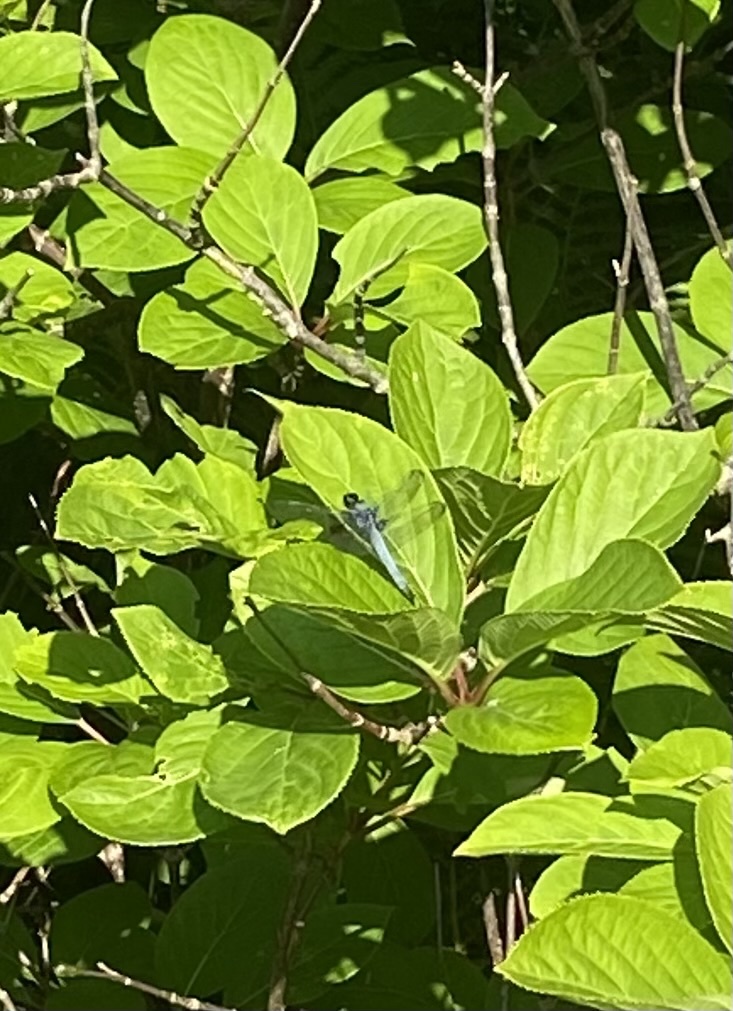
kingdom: Animalia
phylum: Arthropoda
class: Insecta
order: Odonata
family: Libellulidae
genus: Orthetrum
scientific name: Orthetrum melania
